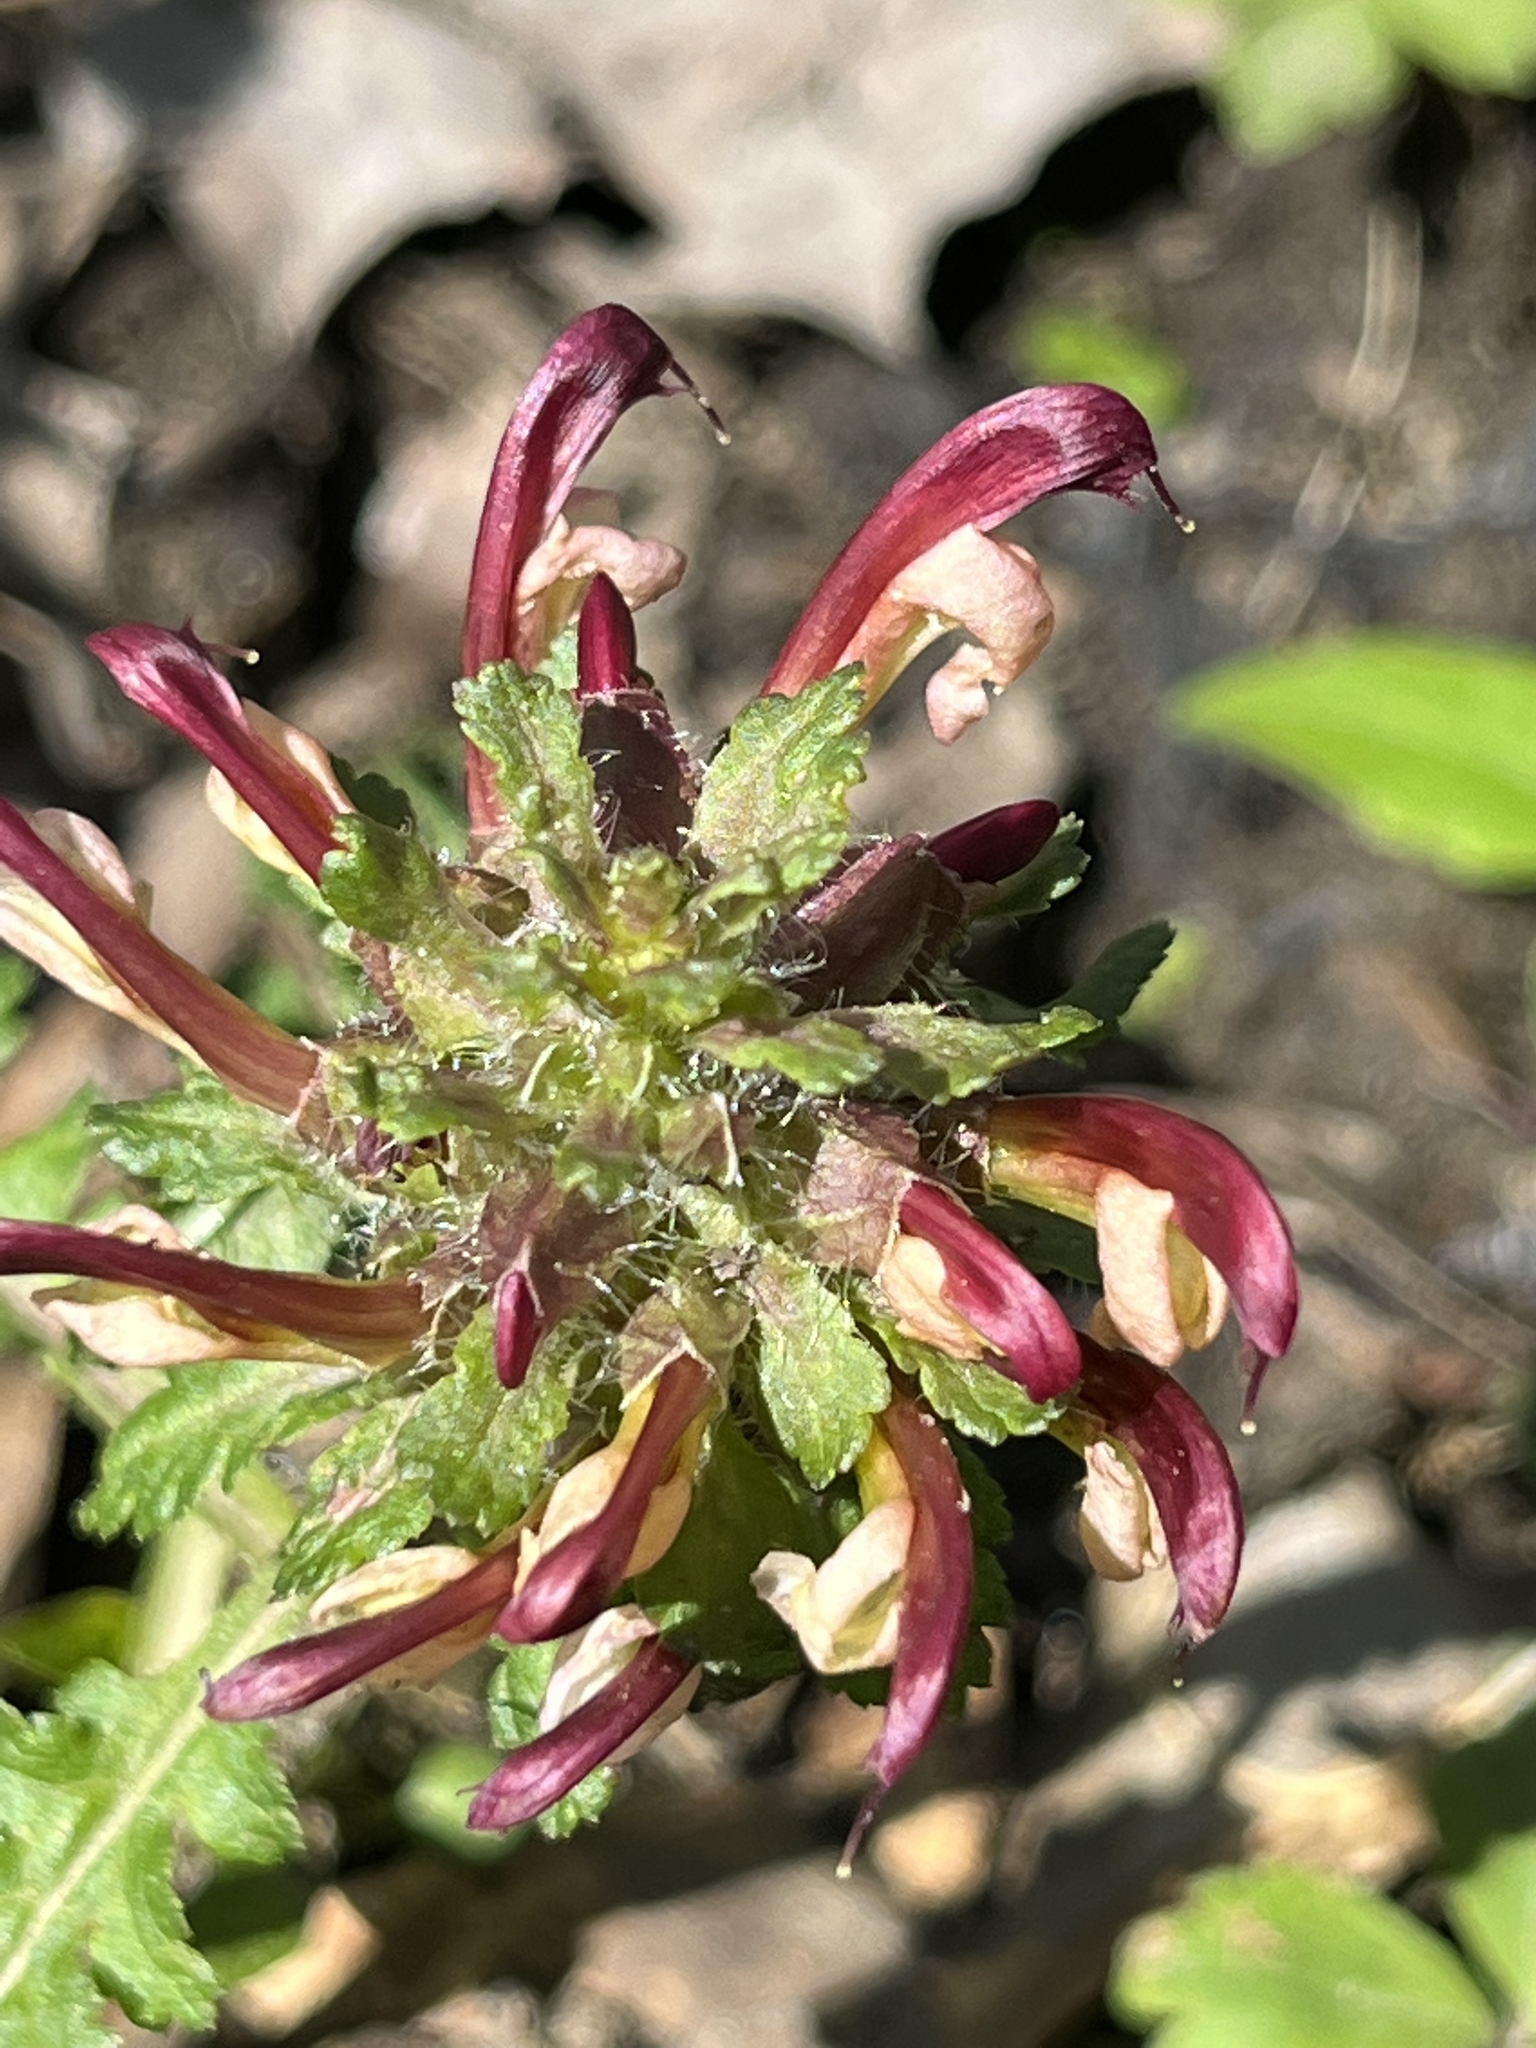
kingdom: Plantae
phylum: Tracheophyta
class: Magnoliopsida
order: Lamiales
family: Orobanchaceae
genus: Pedicularis
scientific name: Pedicularis canadensis
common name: Early lousewort
